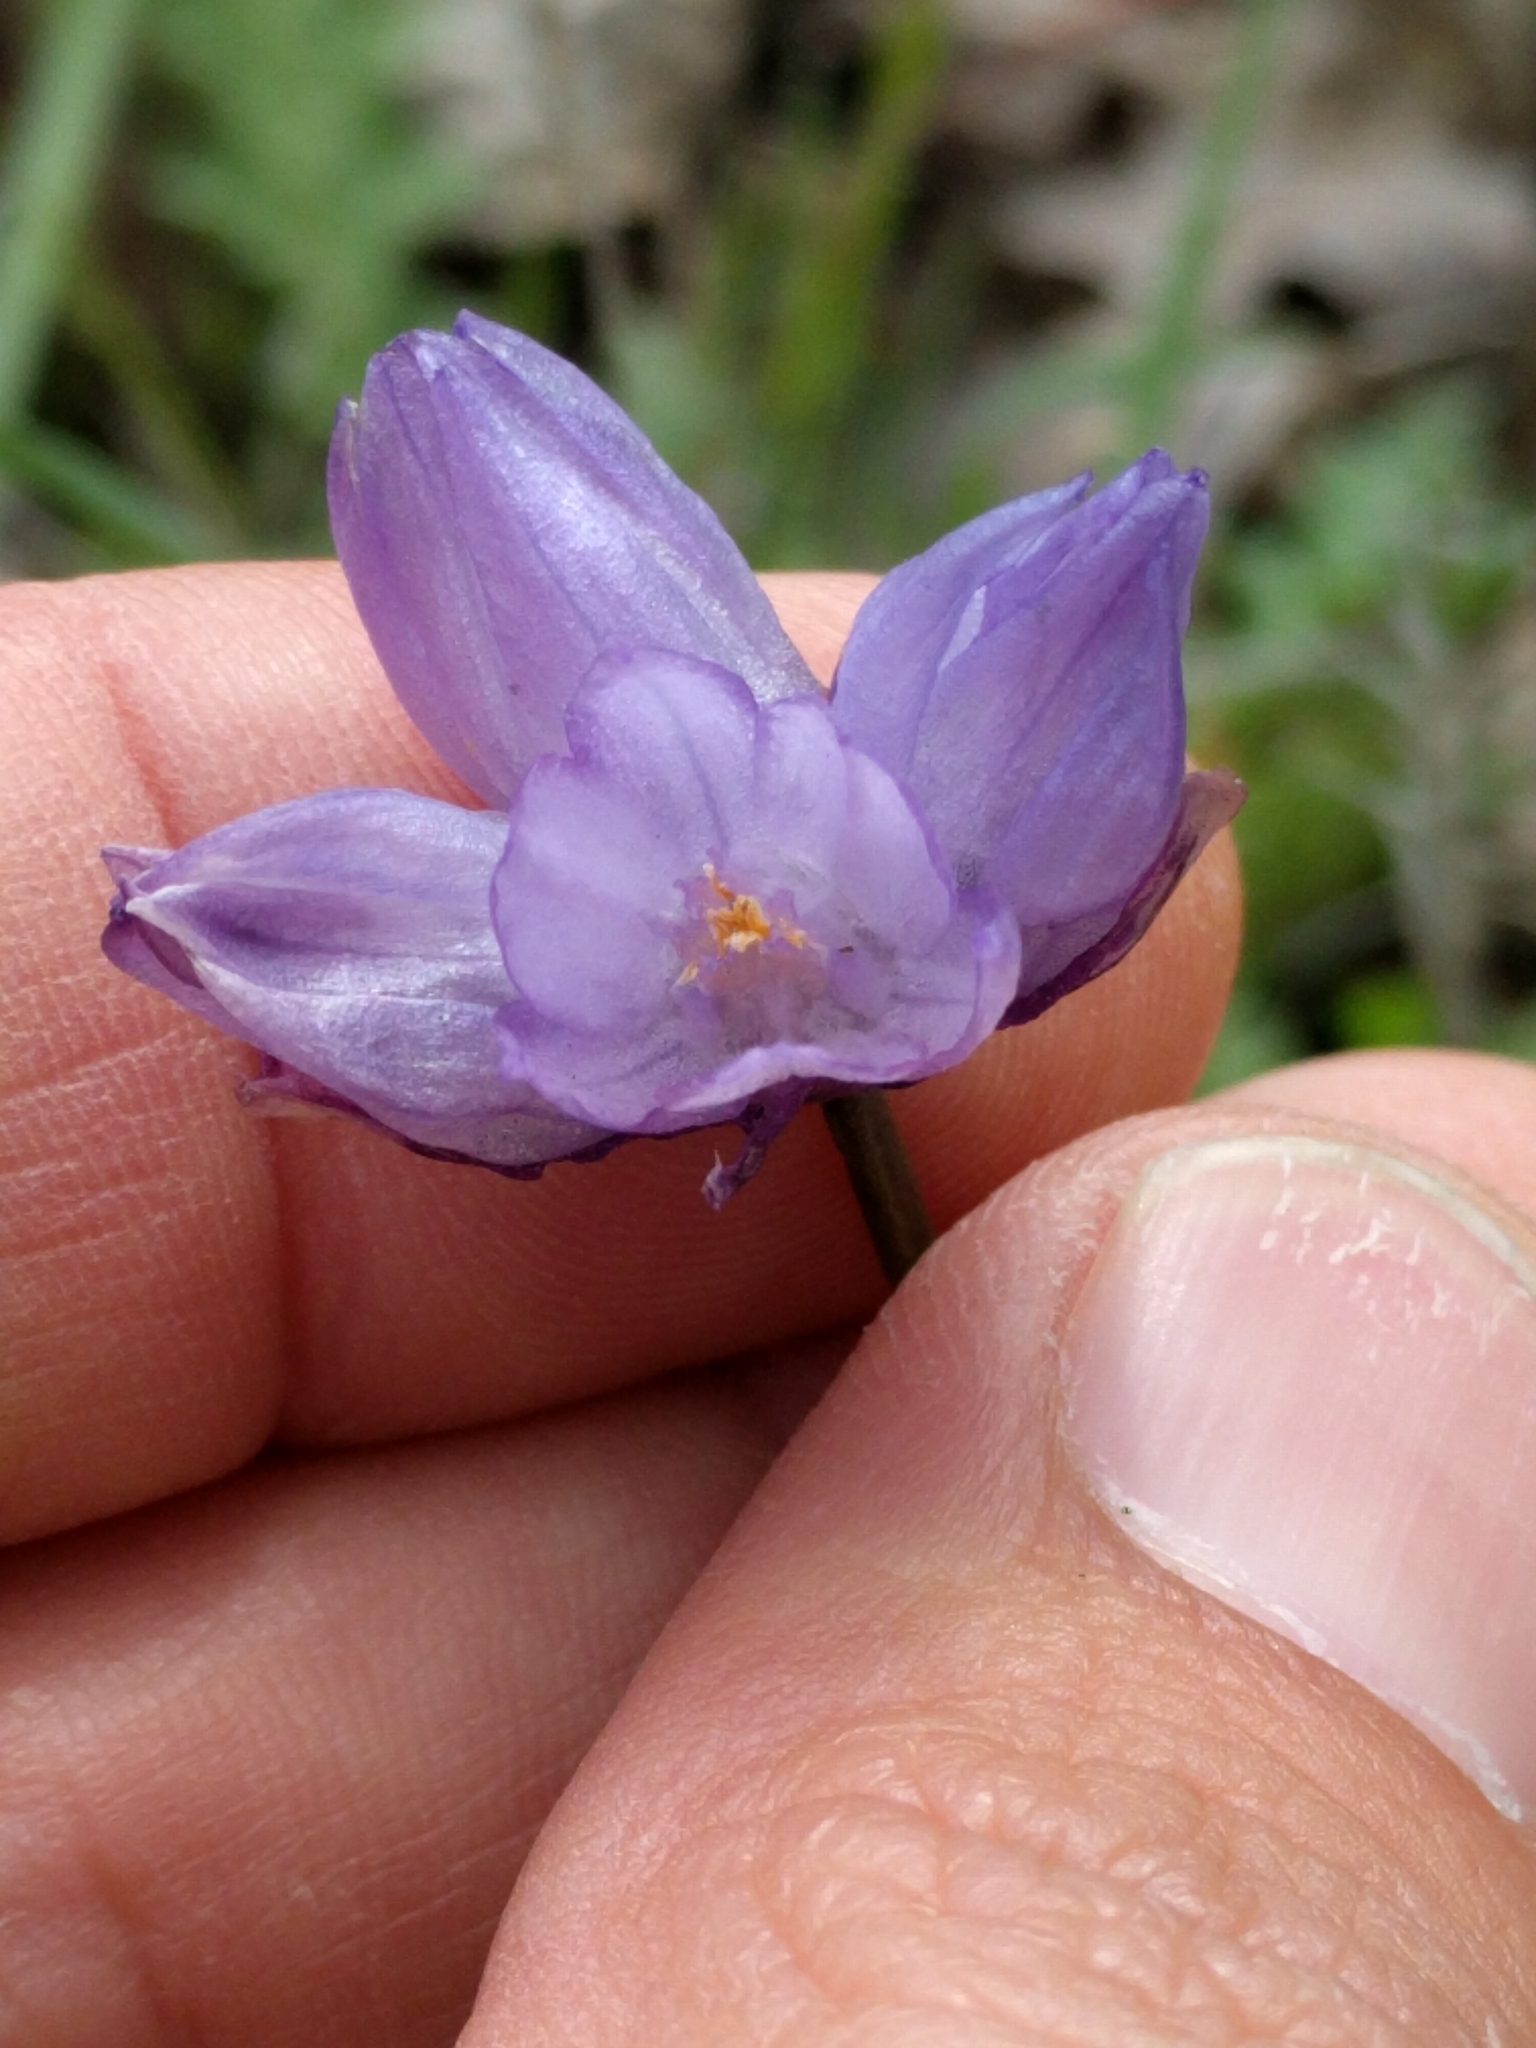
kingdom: Plantae
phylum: Tracheophyta
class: Liliopsida
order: Asparagales
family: Asparagaceae
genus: Dipterostemon
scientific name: Dipterostemon capitatus
